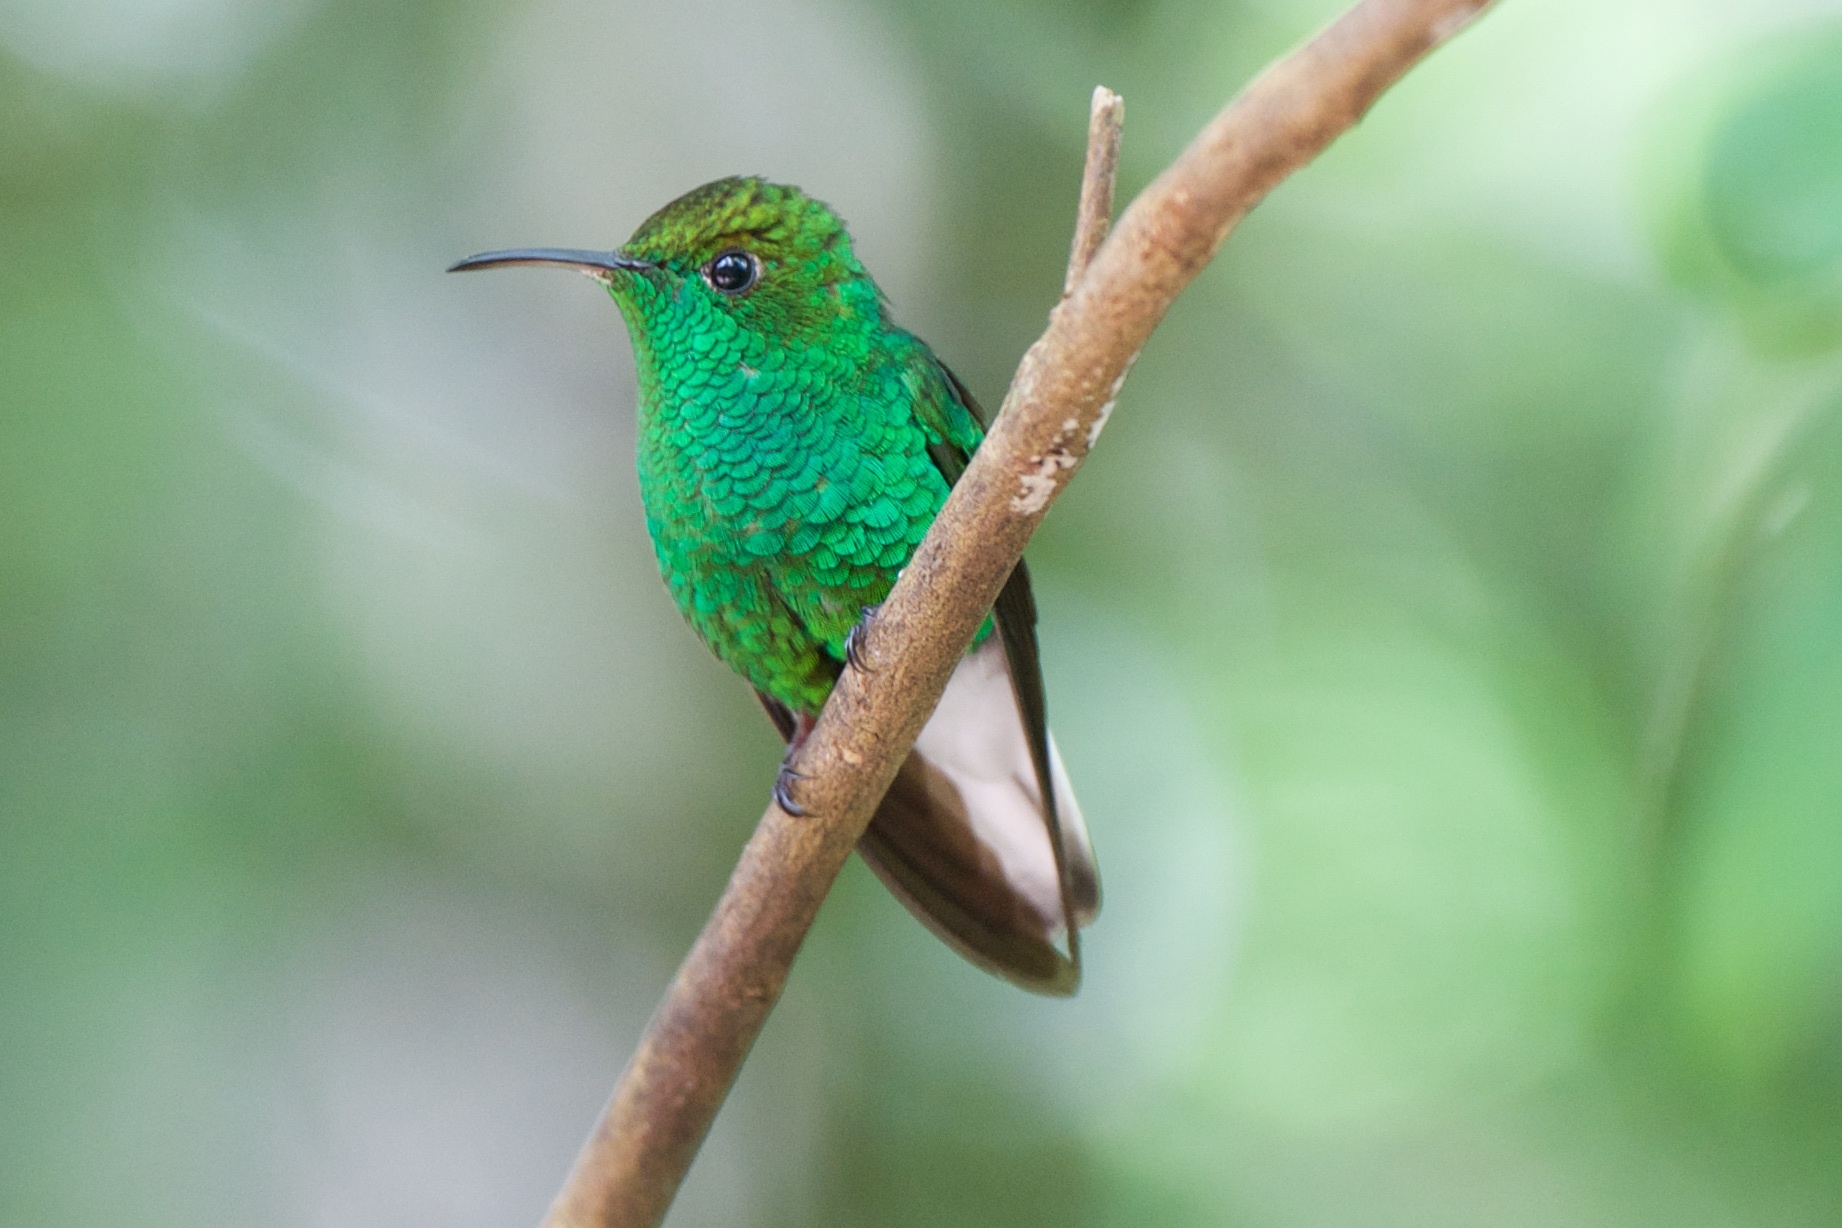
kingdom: Animalia
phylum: Chordata
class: Aves
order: Apodiformes
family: Trochilidae
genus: Microchera
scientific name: Microchera cupreiceps
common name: Coppery-headed emerald
